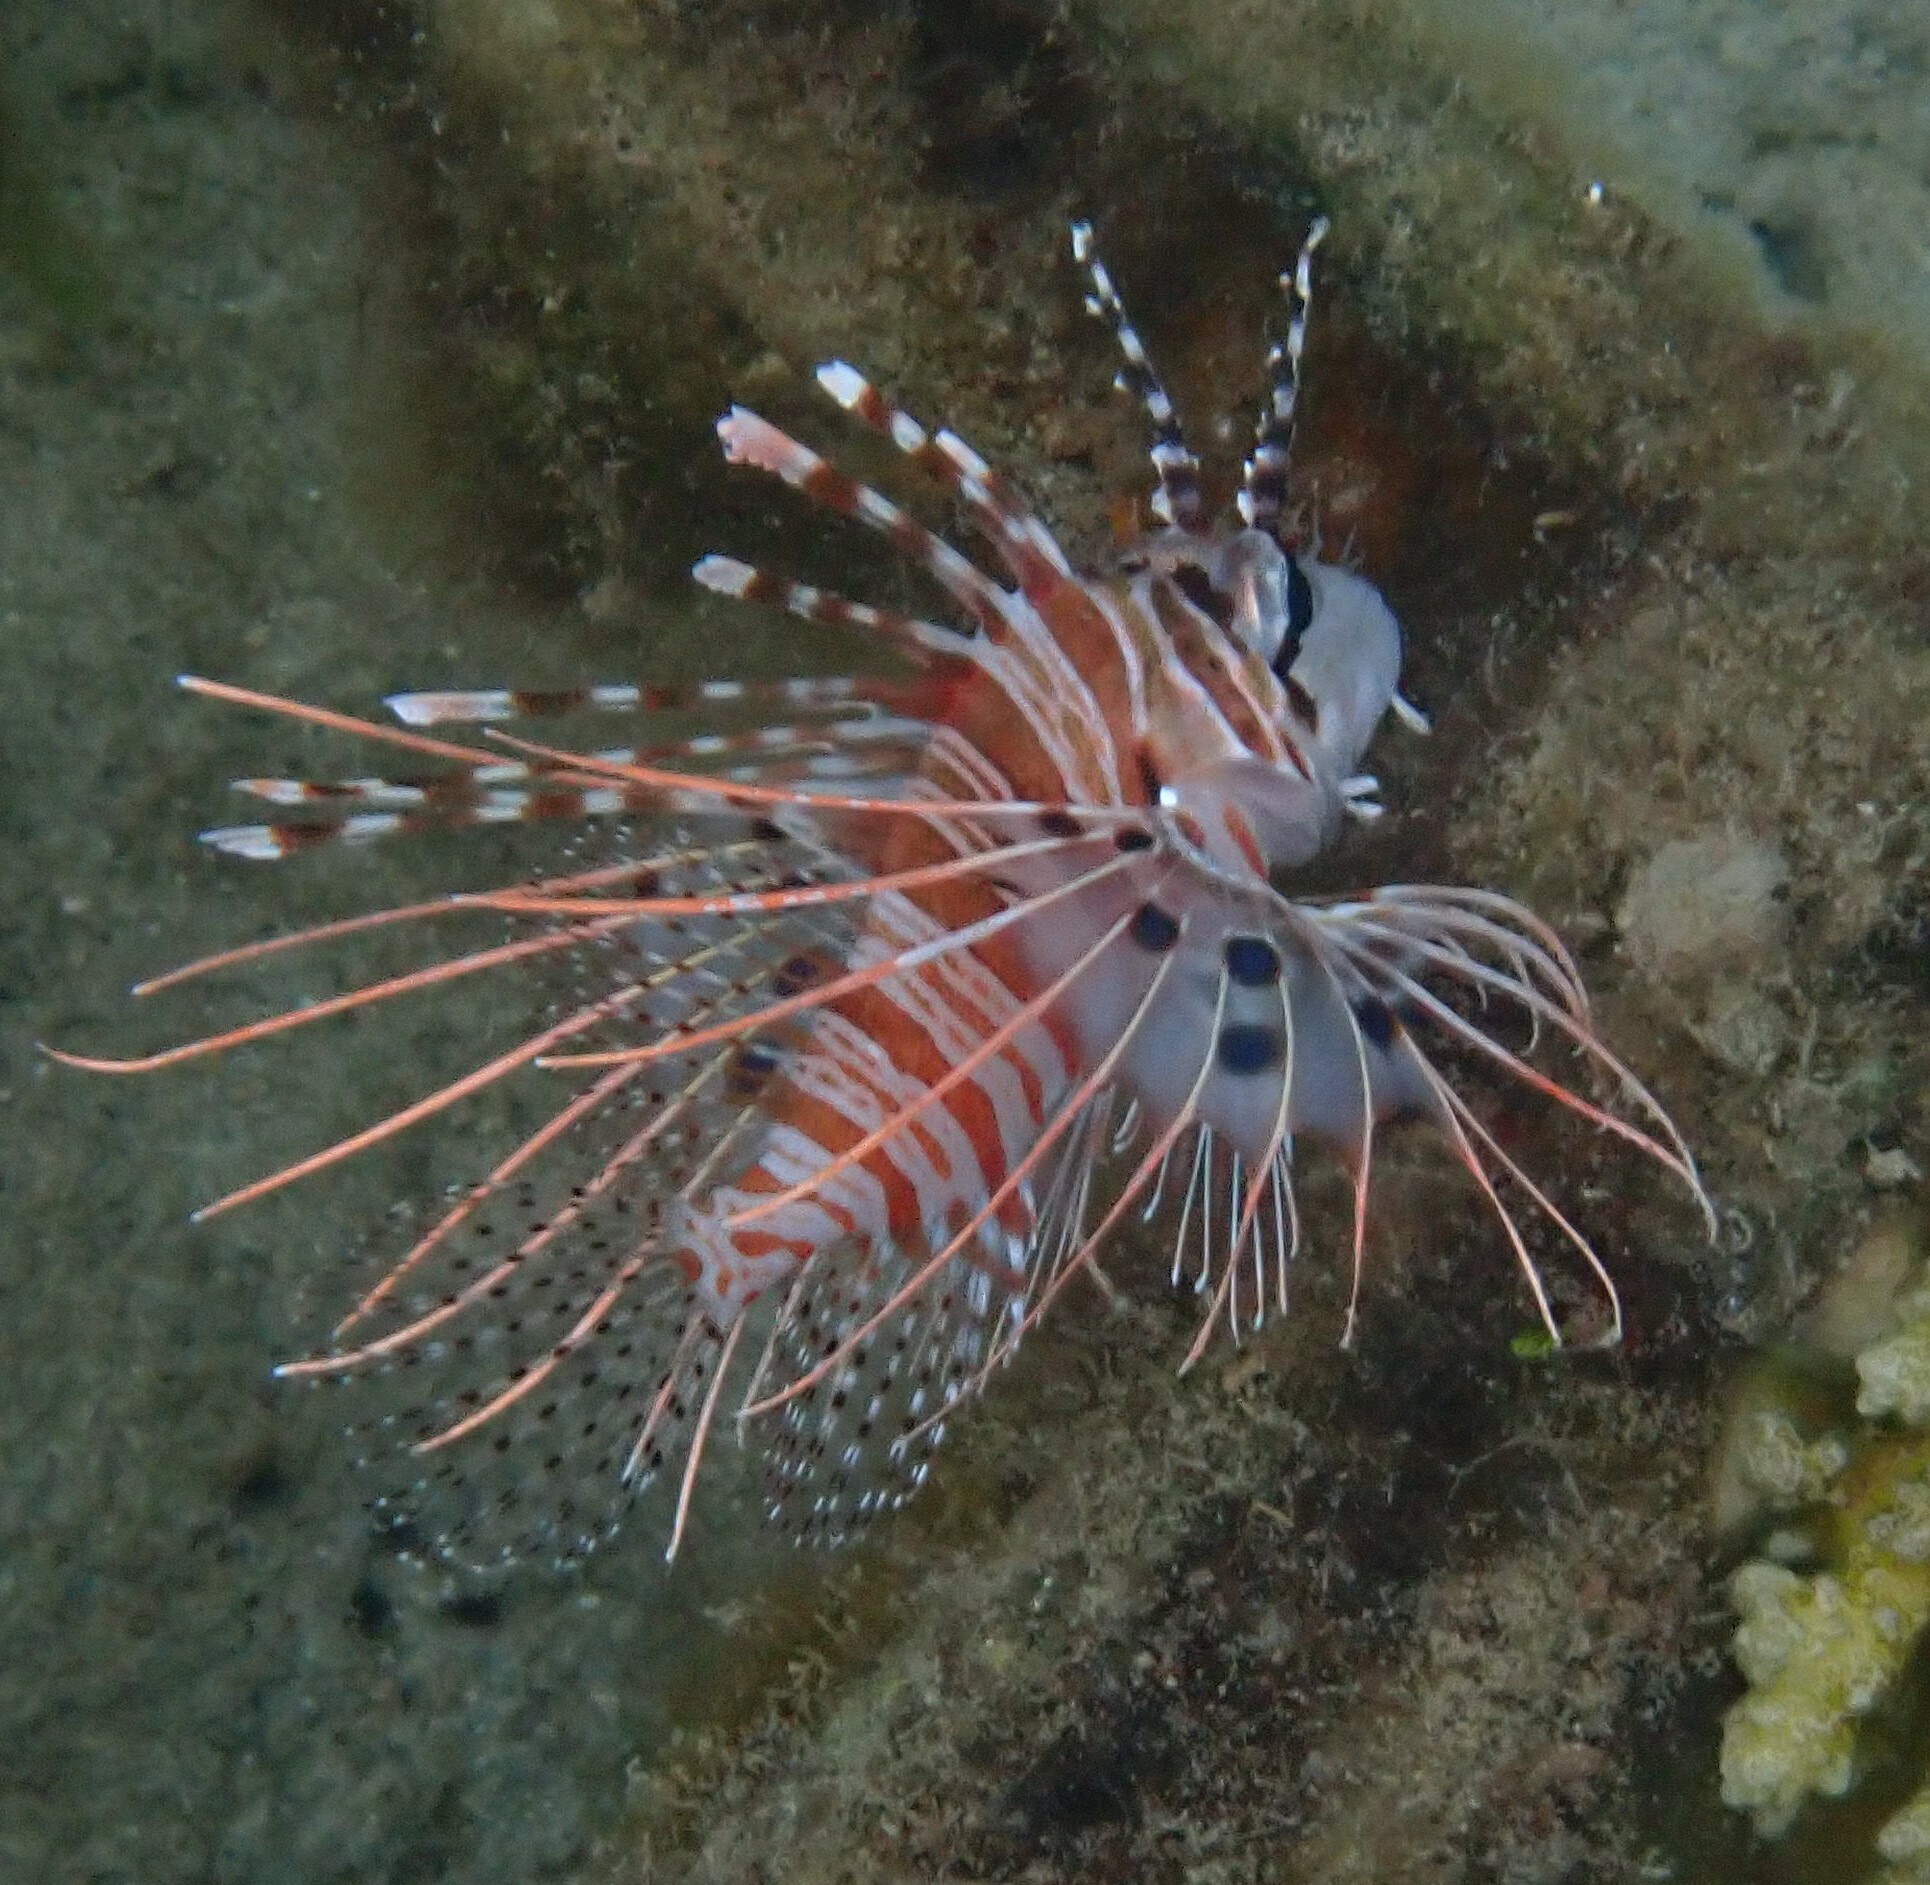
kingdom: Animalia
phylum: Chordata
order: Scorpaeniformes
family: Scorpaenidae
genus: Pterois
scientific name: Pterois antennata
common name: Spotfin lionfish
